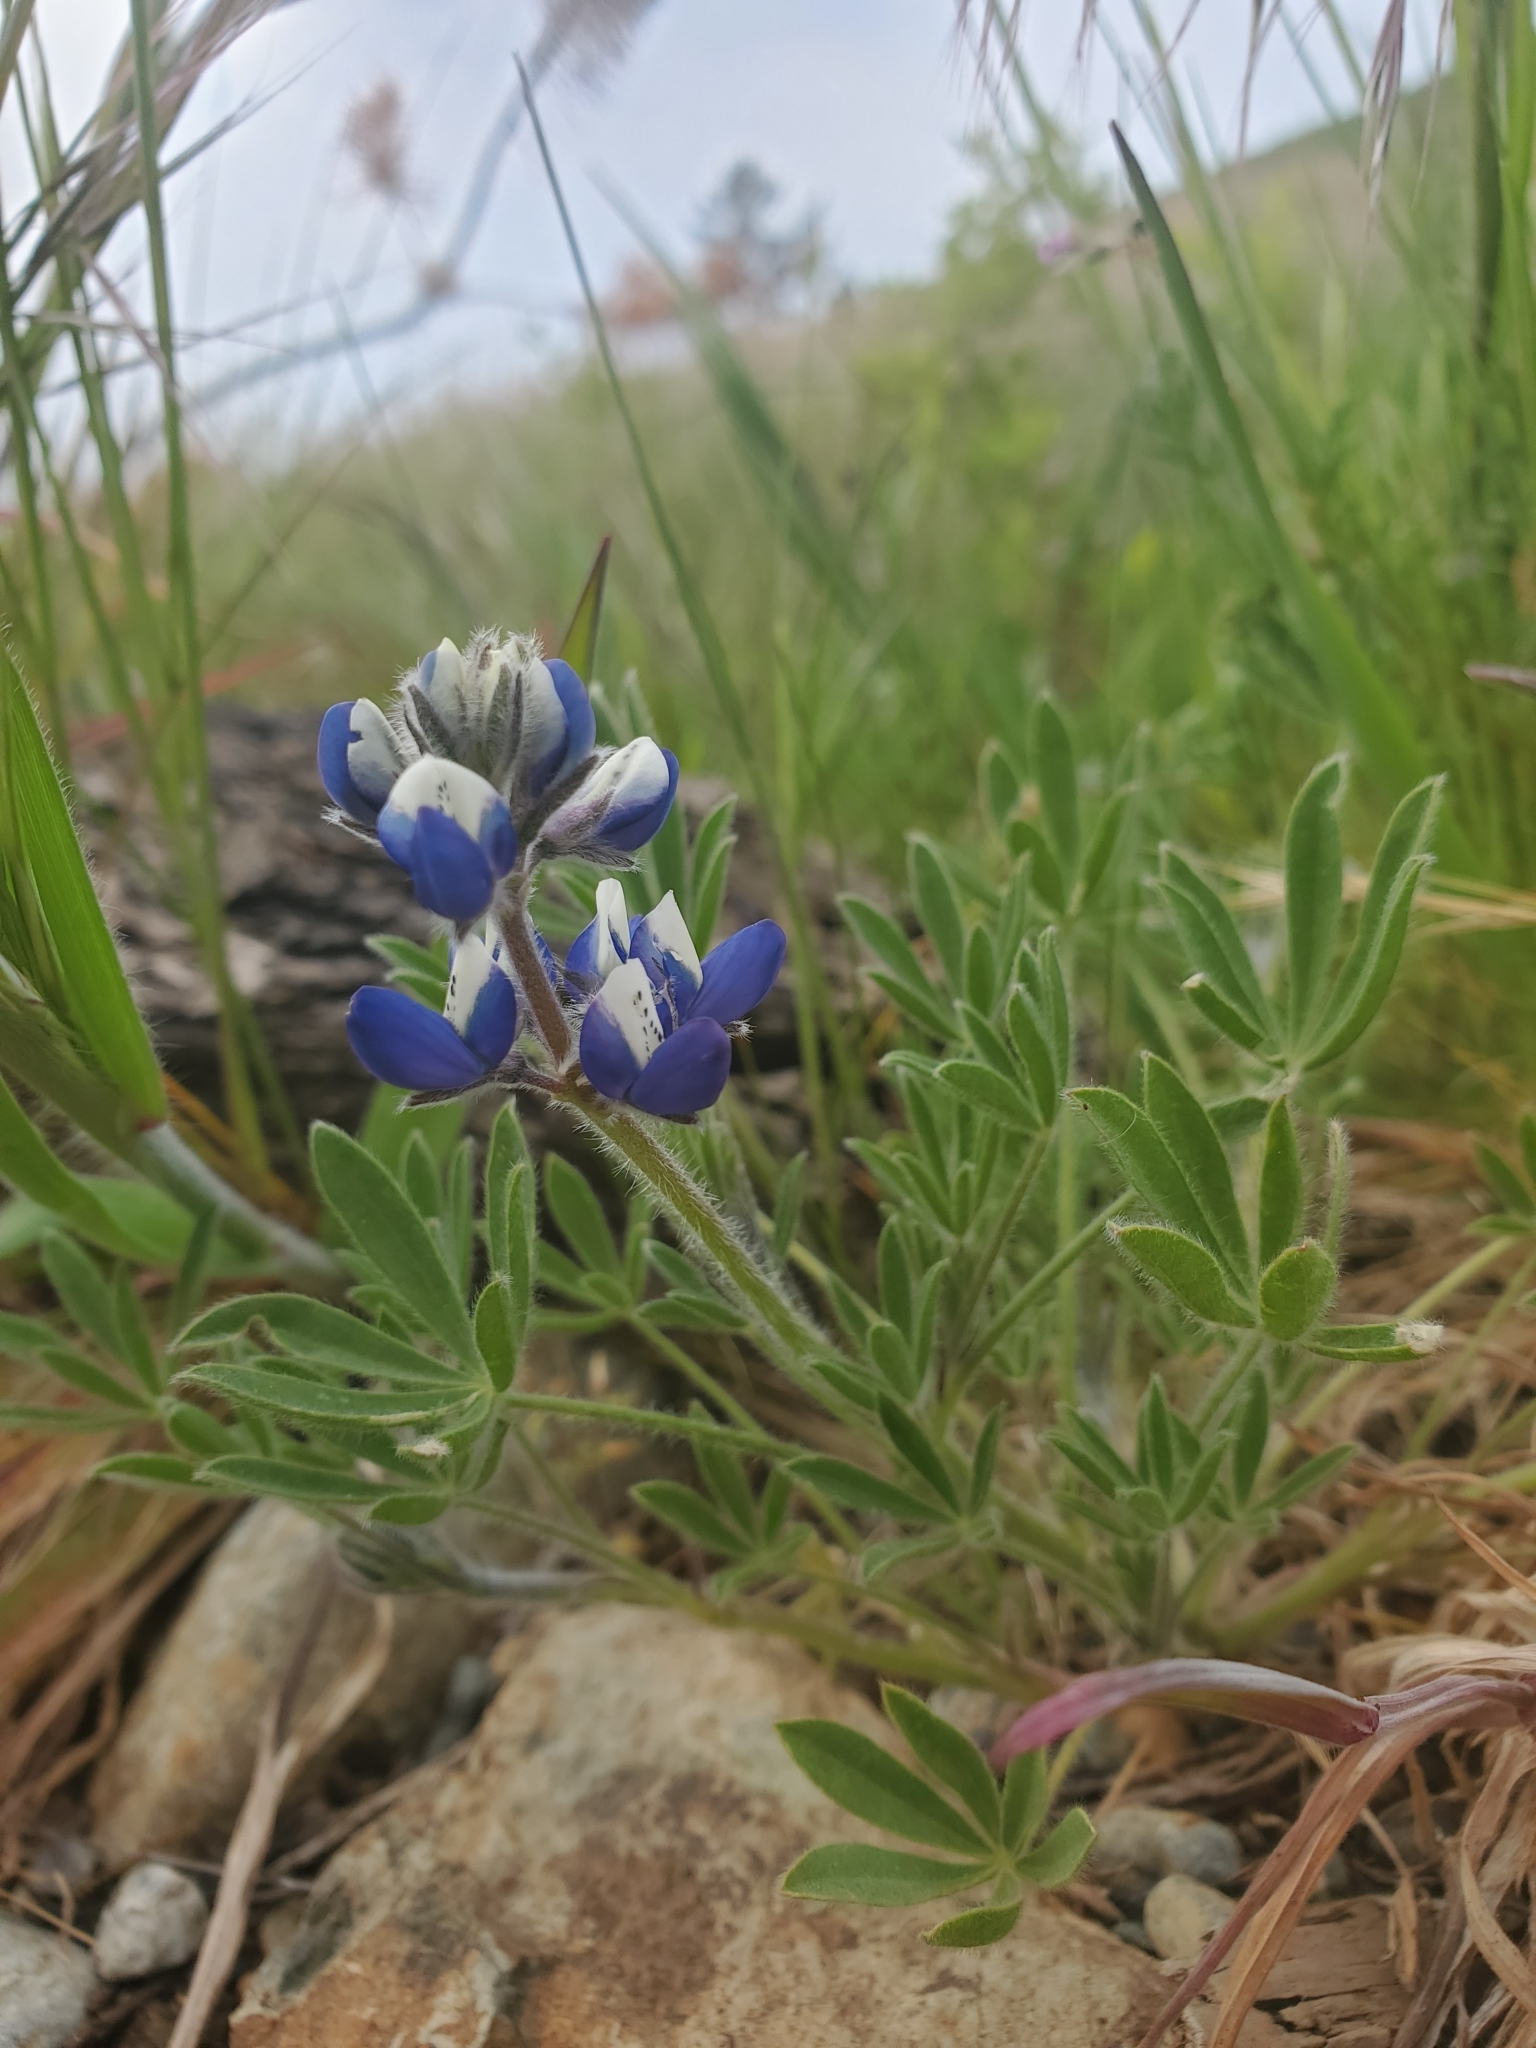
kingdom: Plantae
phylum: Tracheophyta
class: Magnoliopsida
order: Fabales
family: Fabaceae
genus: Lupinus
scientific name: Lupinus bicolor
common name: Miniature lupine
